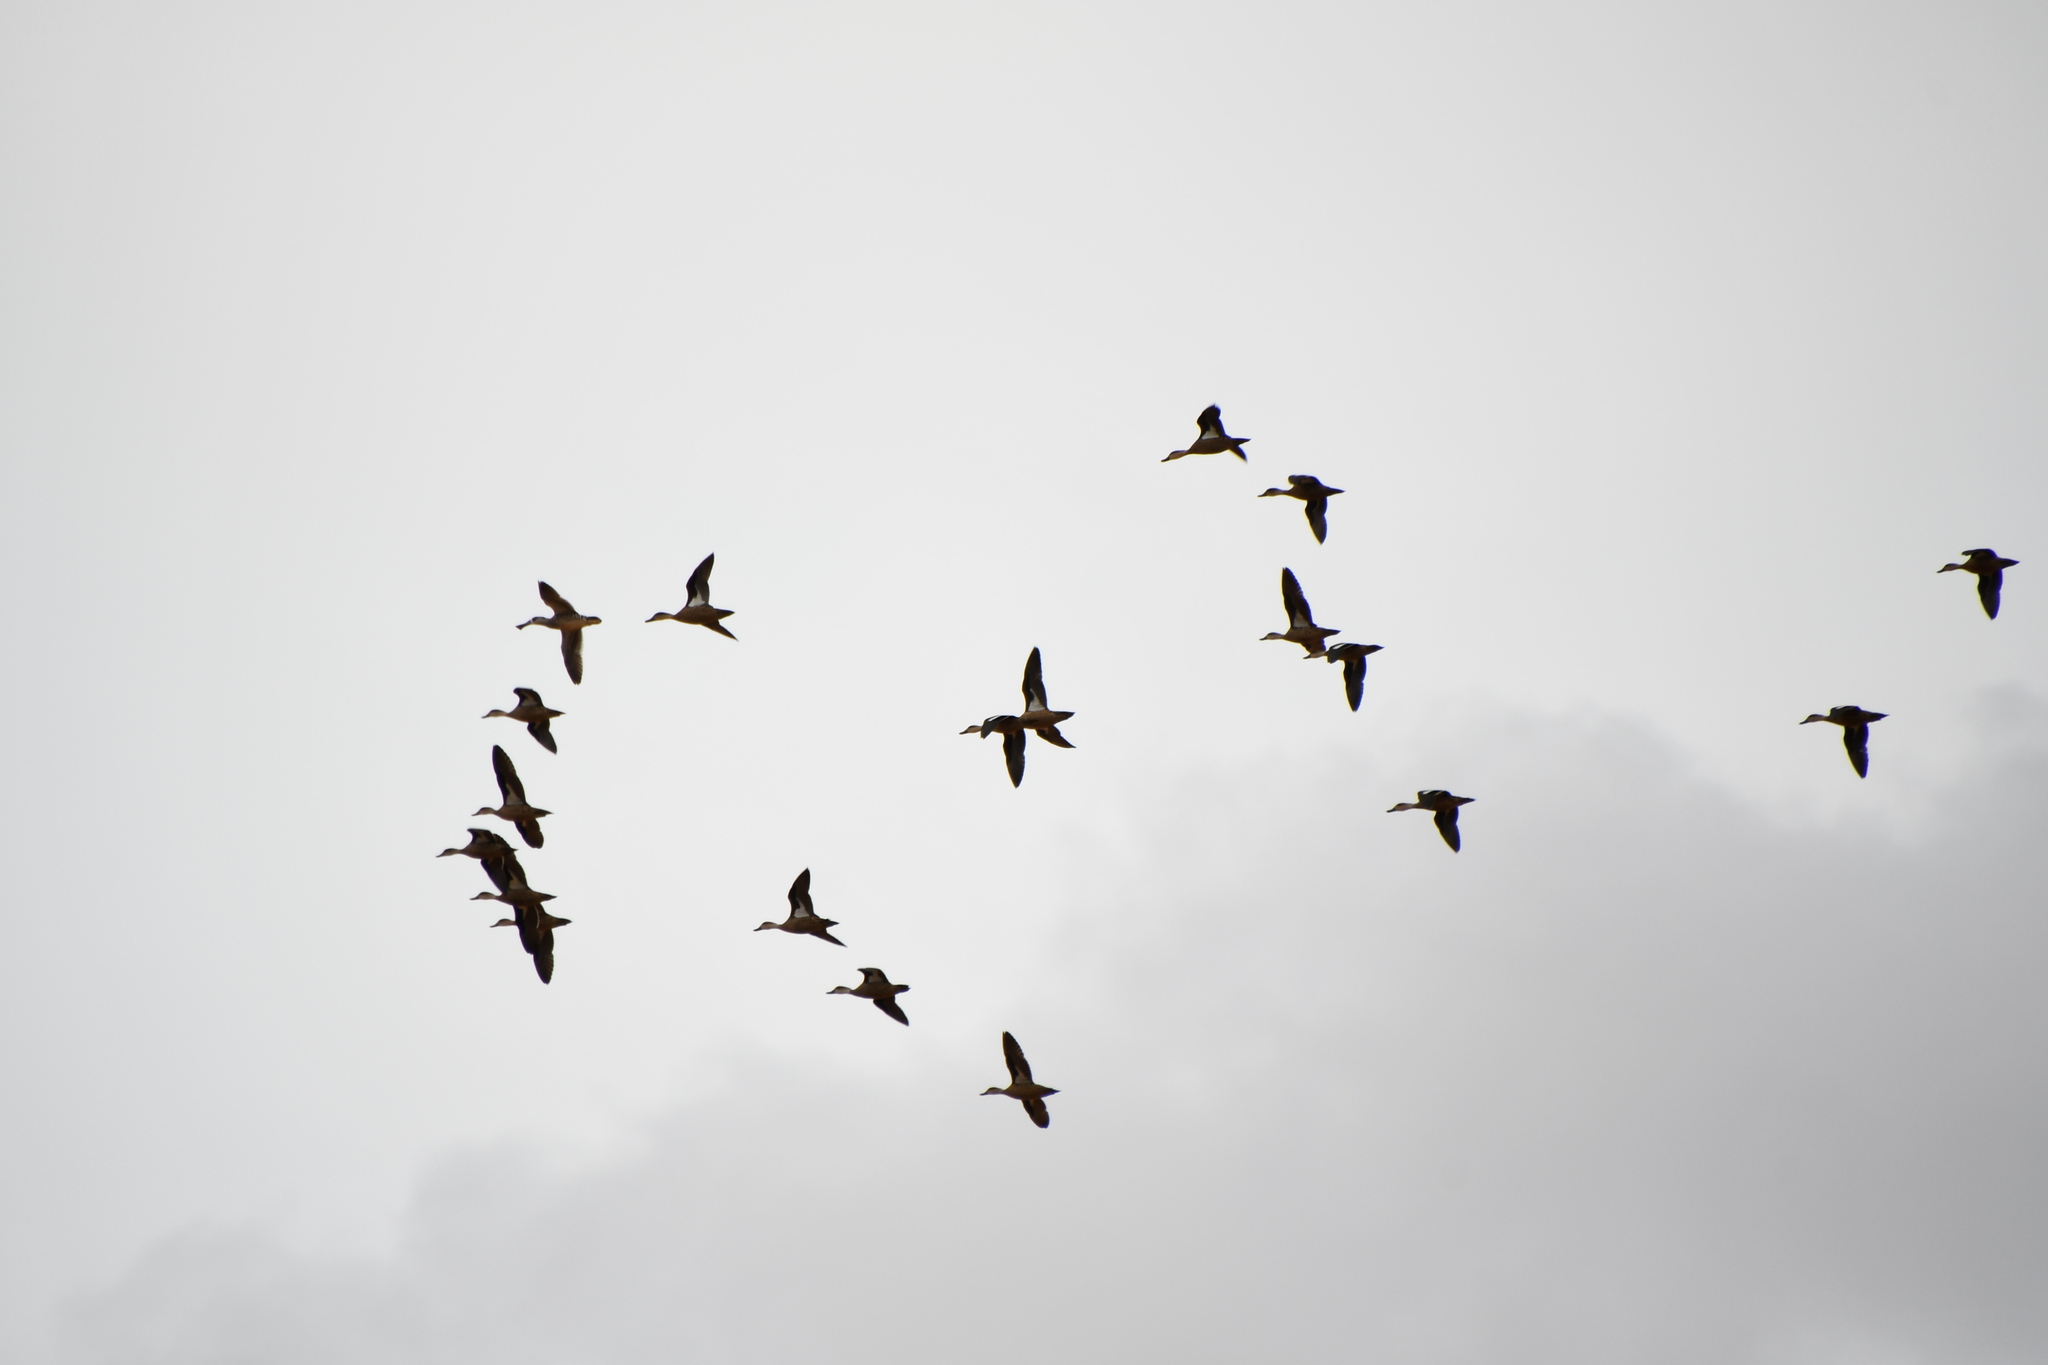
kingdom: Animalia
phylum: Chordata
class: Aves
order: Anseriformes
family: Anatidae
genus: Malacorhynchus
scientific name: Malacorhynchus membranaceus
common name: Pink-eared duck
